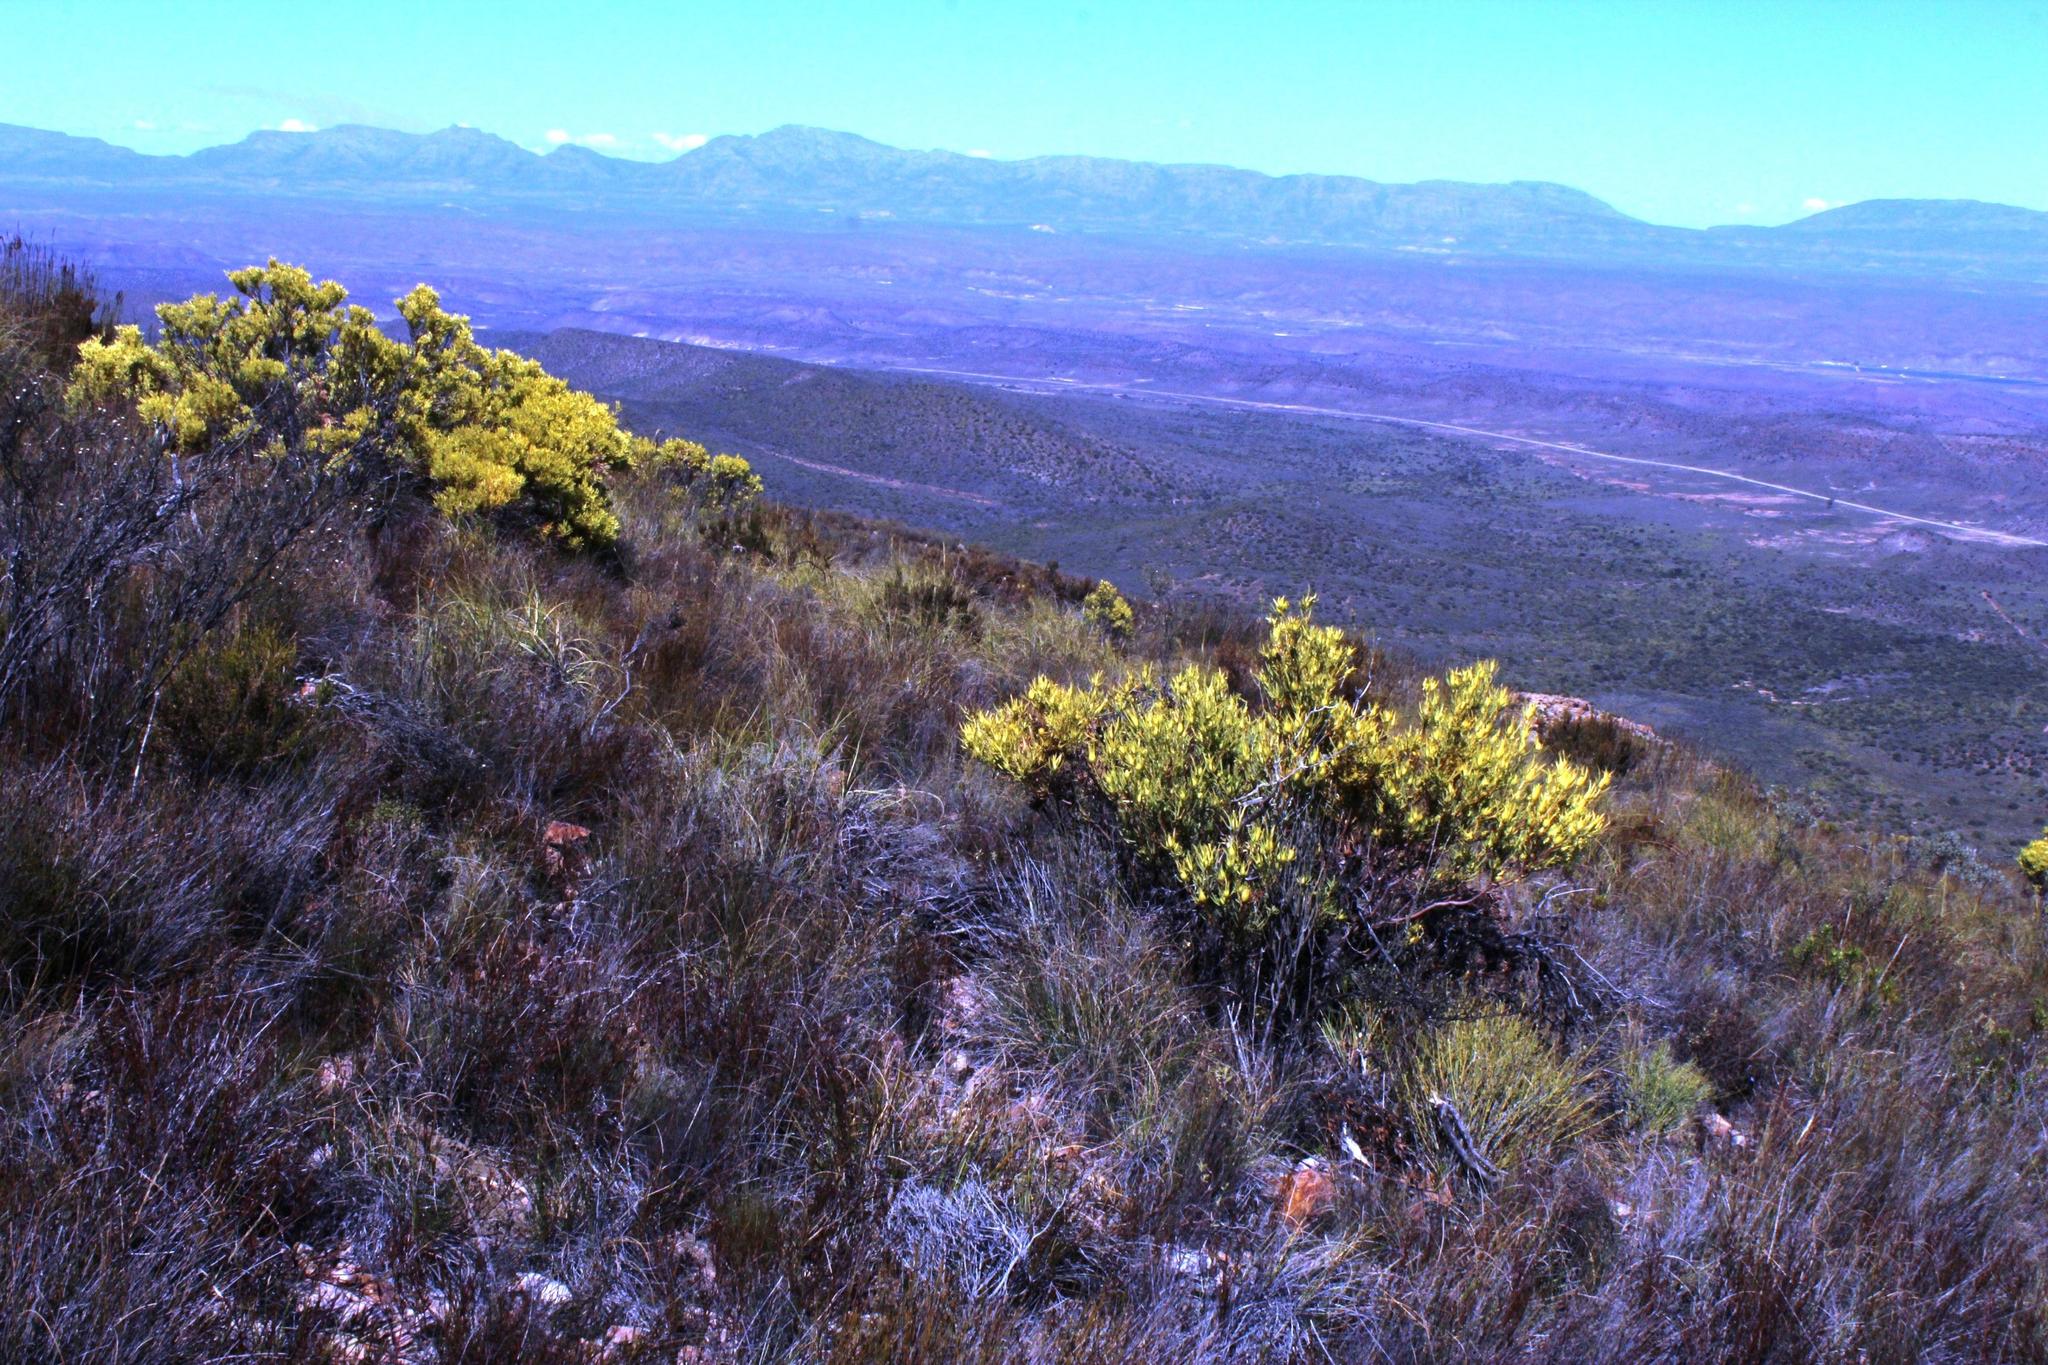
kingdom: Plantae
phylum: Tracheophyta
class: Magnoliopsida
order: Proteales
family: Proteaceae
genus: Leucadendron
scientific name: Leucadendron salignum
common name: Common sunshine conebush
